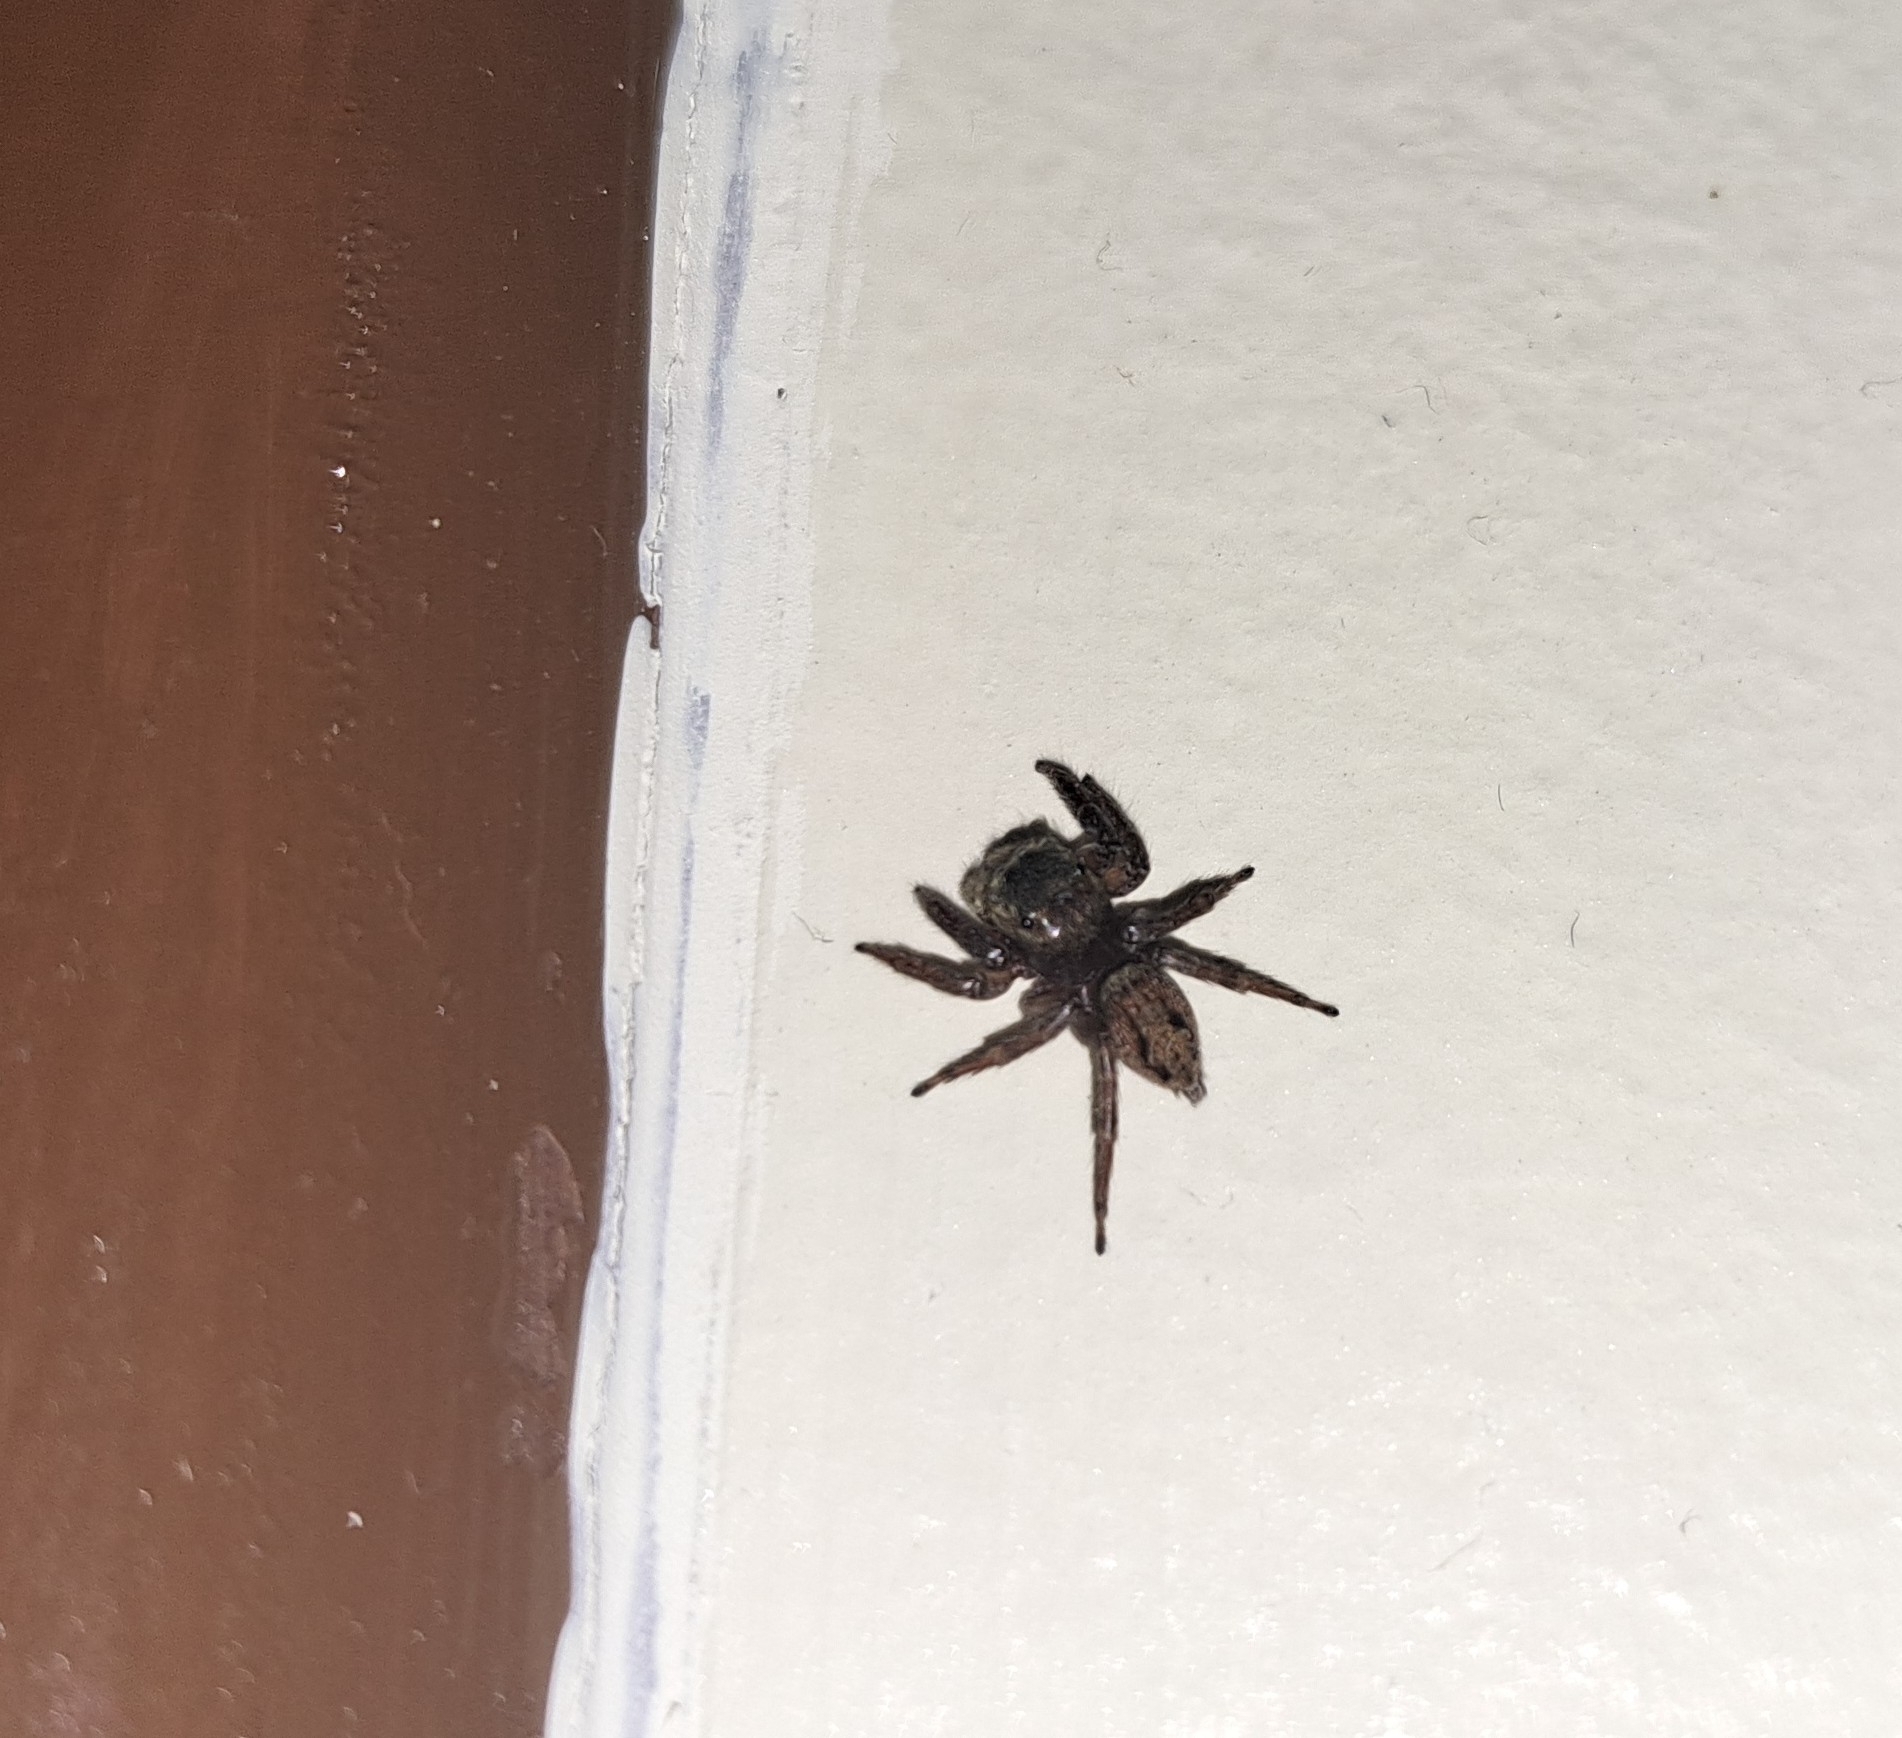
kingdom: Animalia
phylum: Arthropoda
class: Arachnida
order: Araneae
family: Salticidae
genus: Hasarius
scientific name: Hasarius adansoni
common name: Jumping spider
